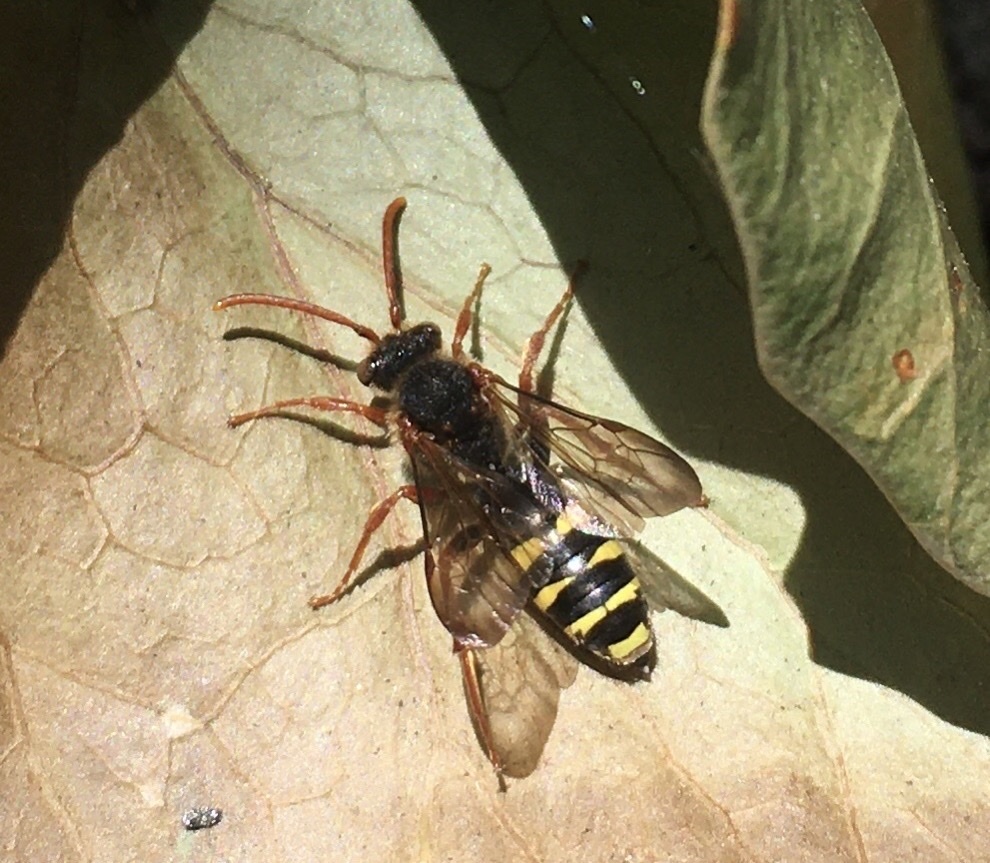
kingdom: Animalia
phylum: Arthropoda
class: Insecta
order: Hymenoptera
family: Apidae
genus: Nomada
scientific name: Nomada marshamella
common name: Marsham's nomad bee
